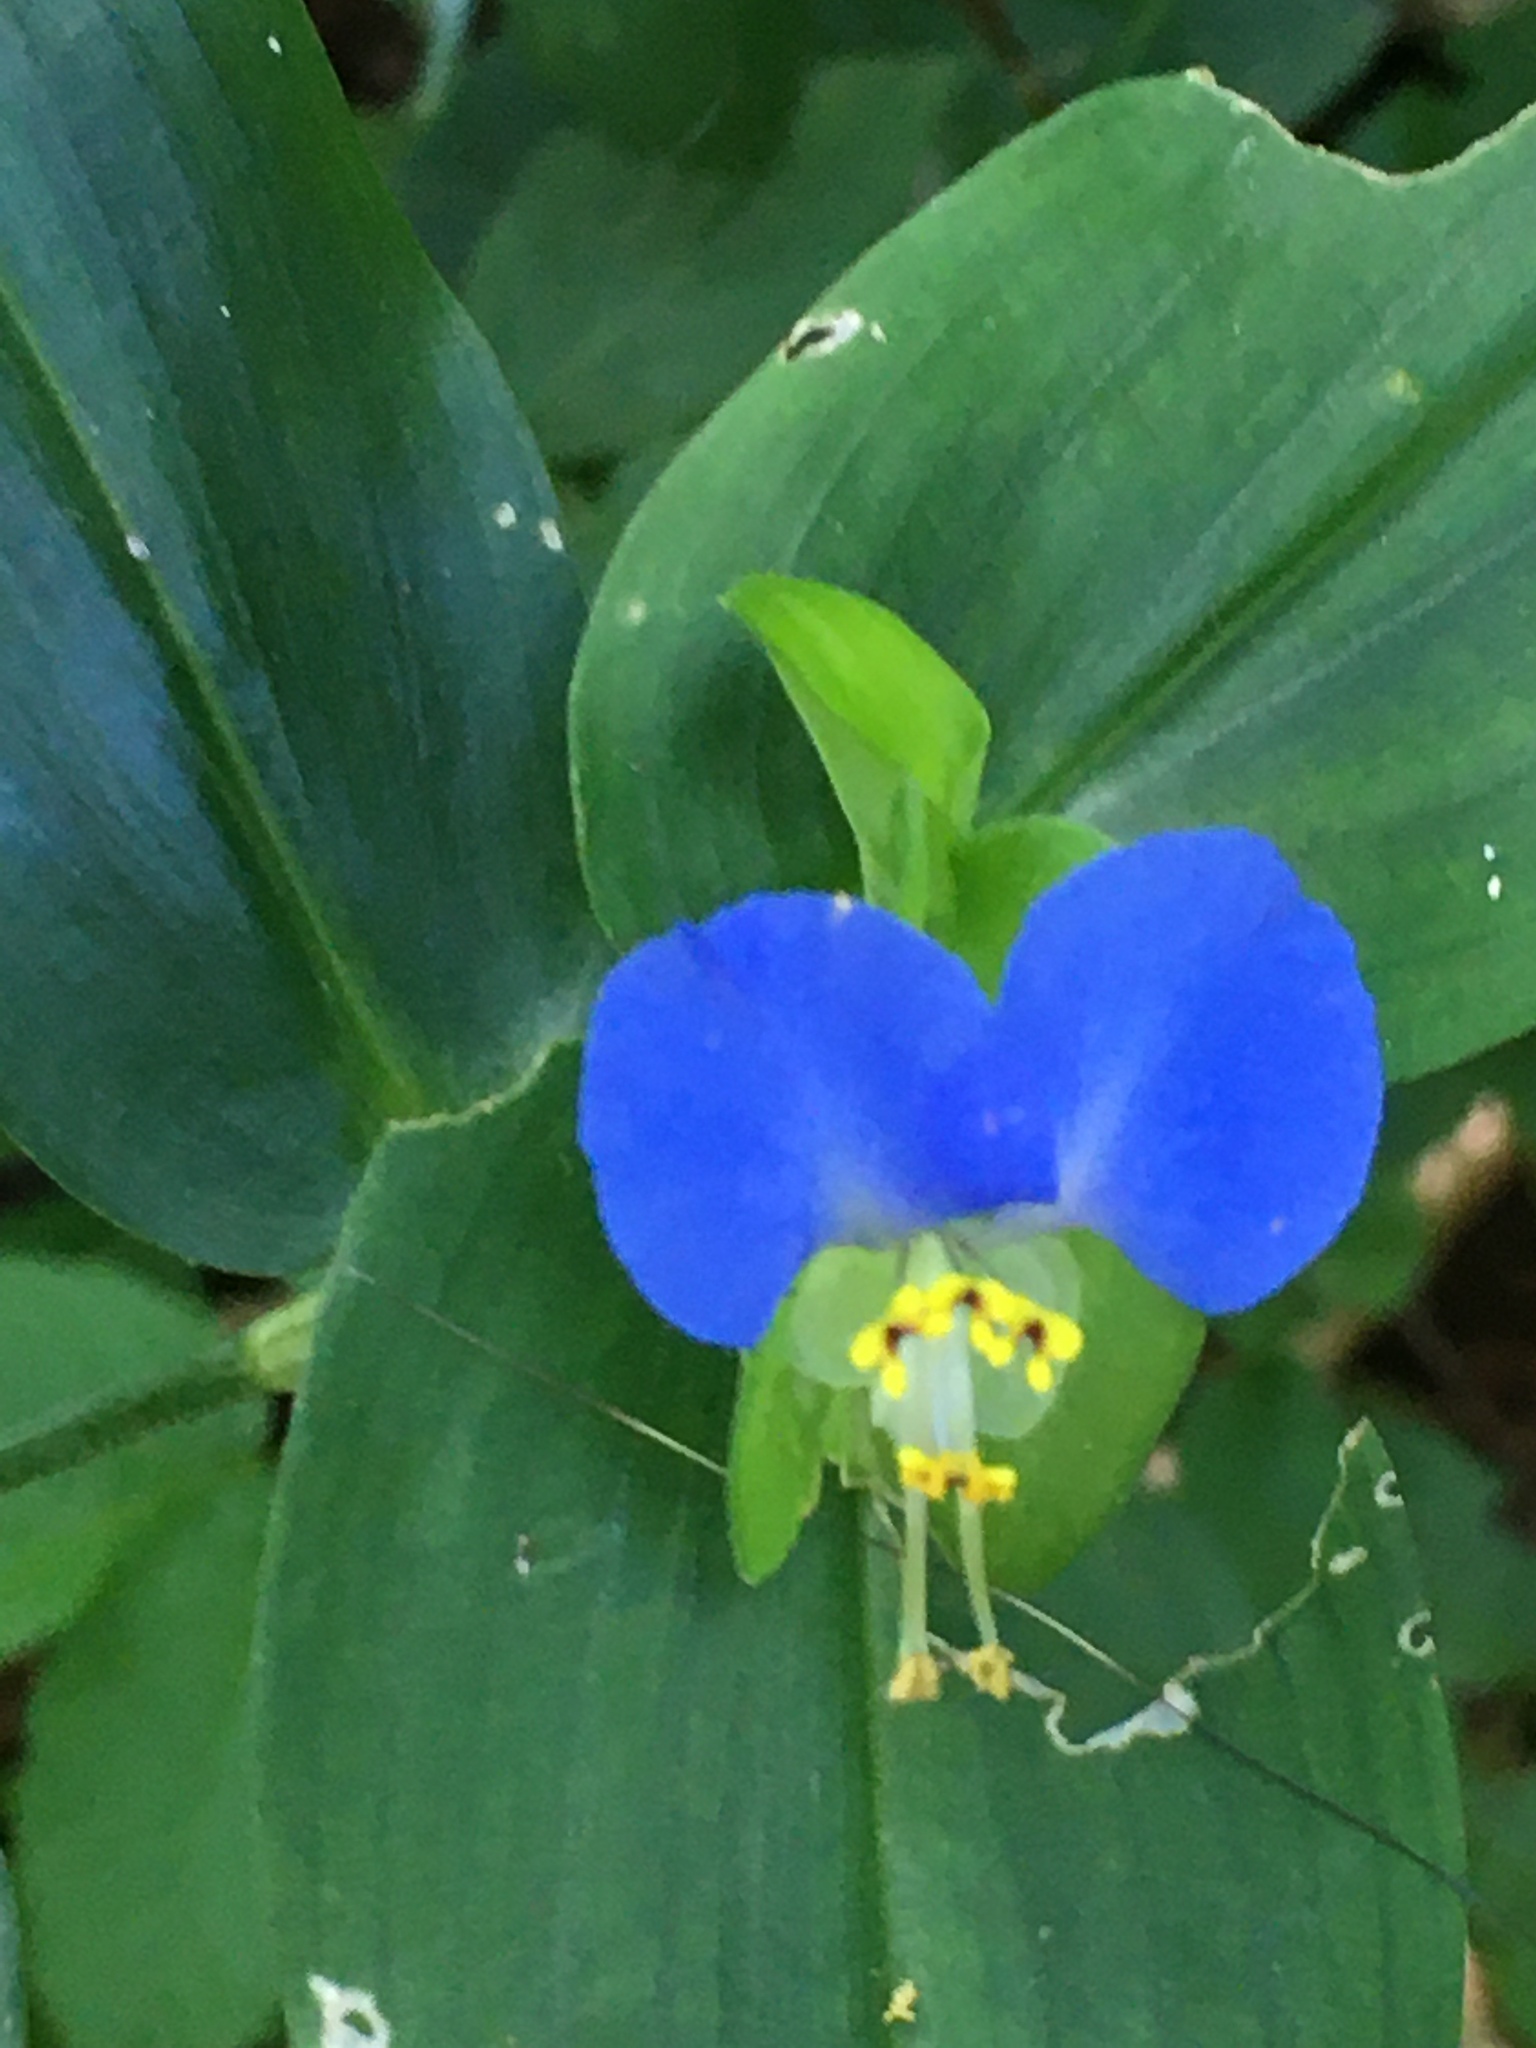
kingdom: Plantae
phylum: Tracheophyta
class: Liliopsida
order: Commelinales
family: Commelinaceae
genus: Commelina
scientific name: Commelina communis
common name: Asiatic dayflower
